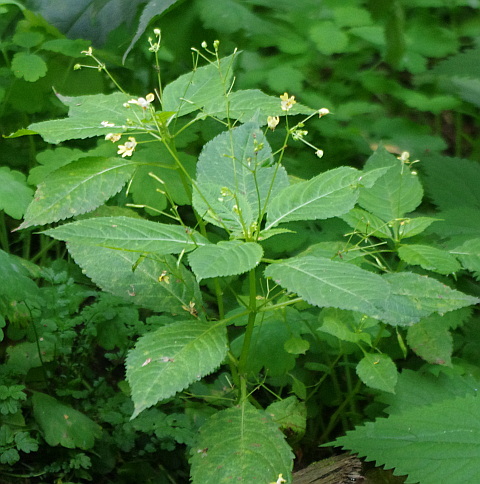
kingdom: Plantae
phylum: Tracheophyta
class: Magnoliopsida
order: Ericales
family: Balsaminaceae
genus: Impatiens
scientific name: Impatiens parviflora
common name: Small balsam
